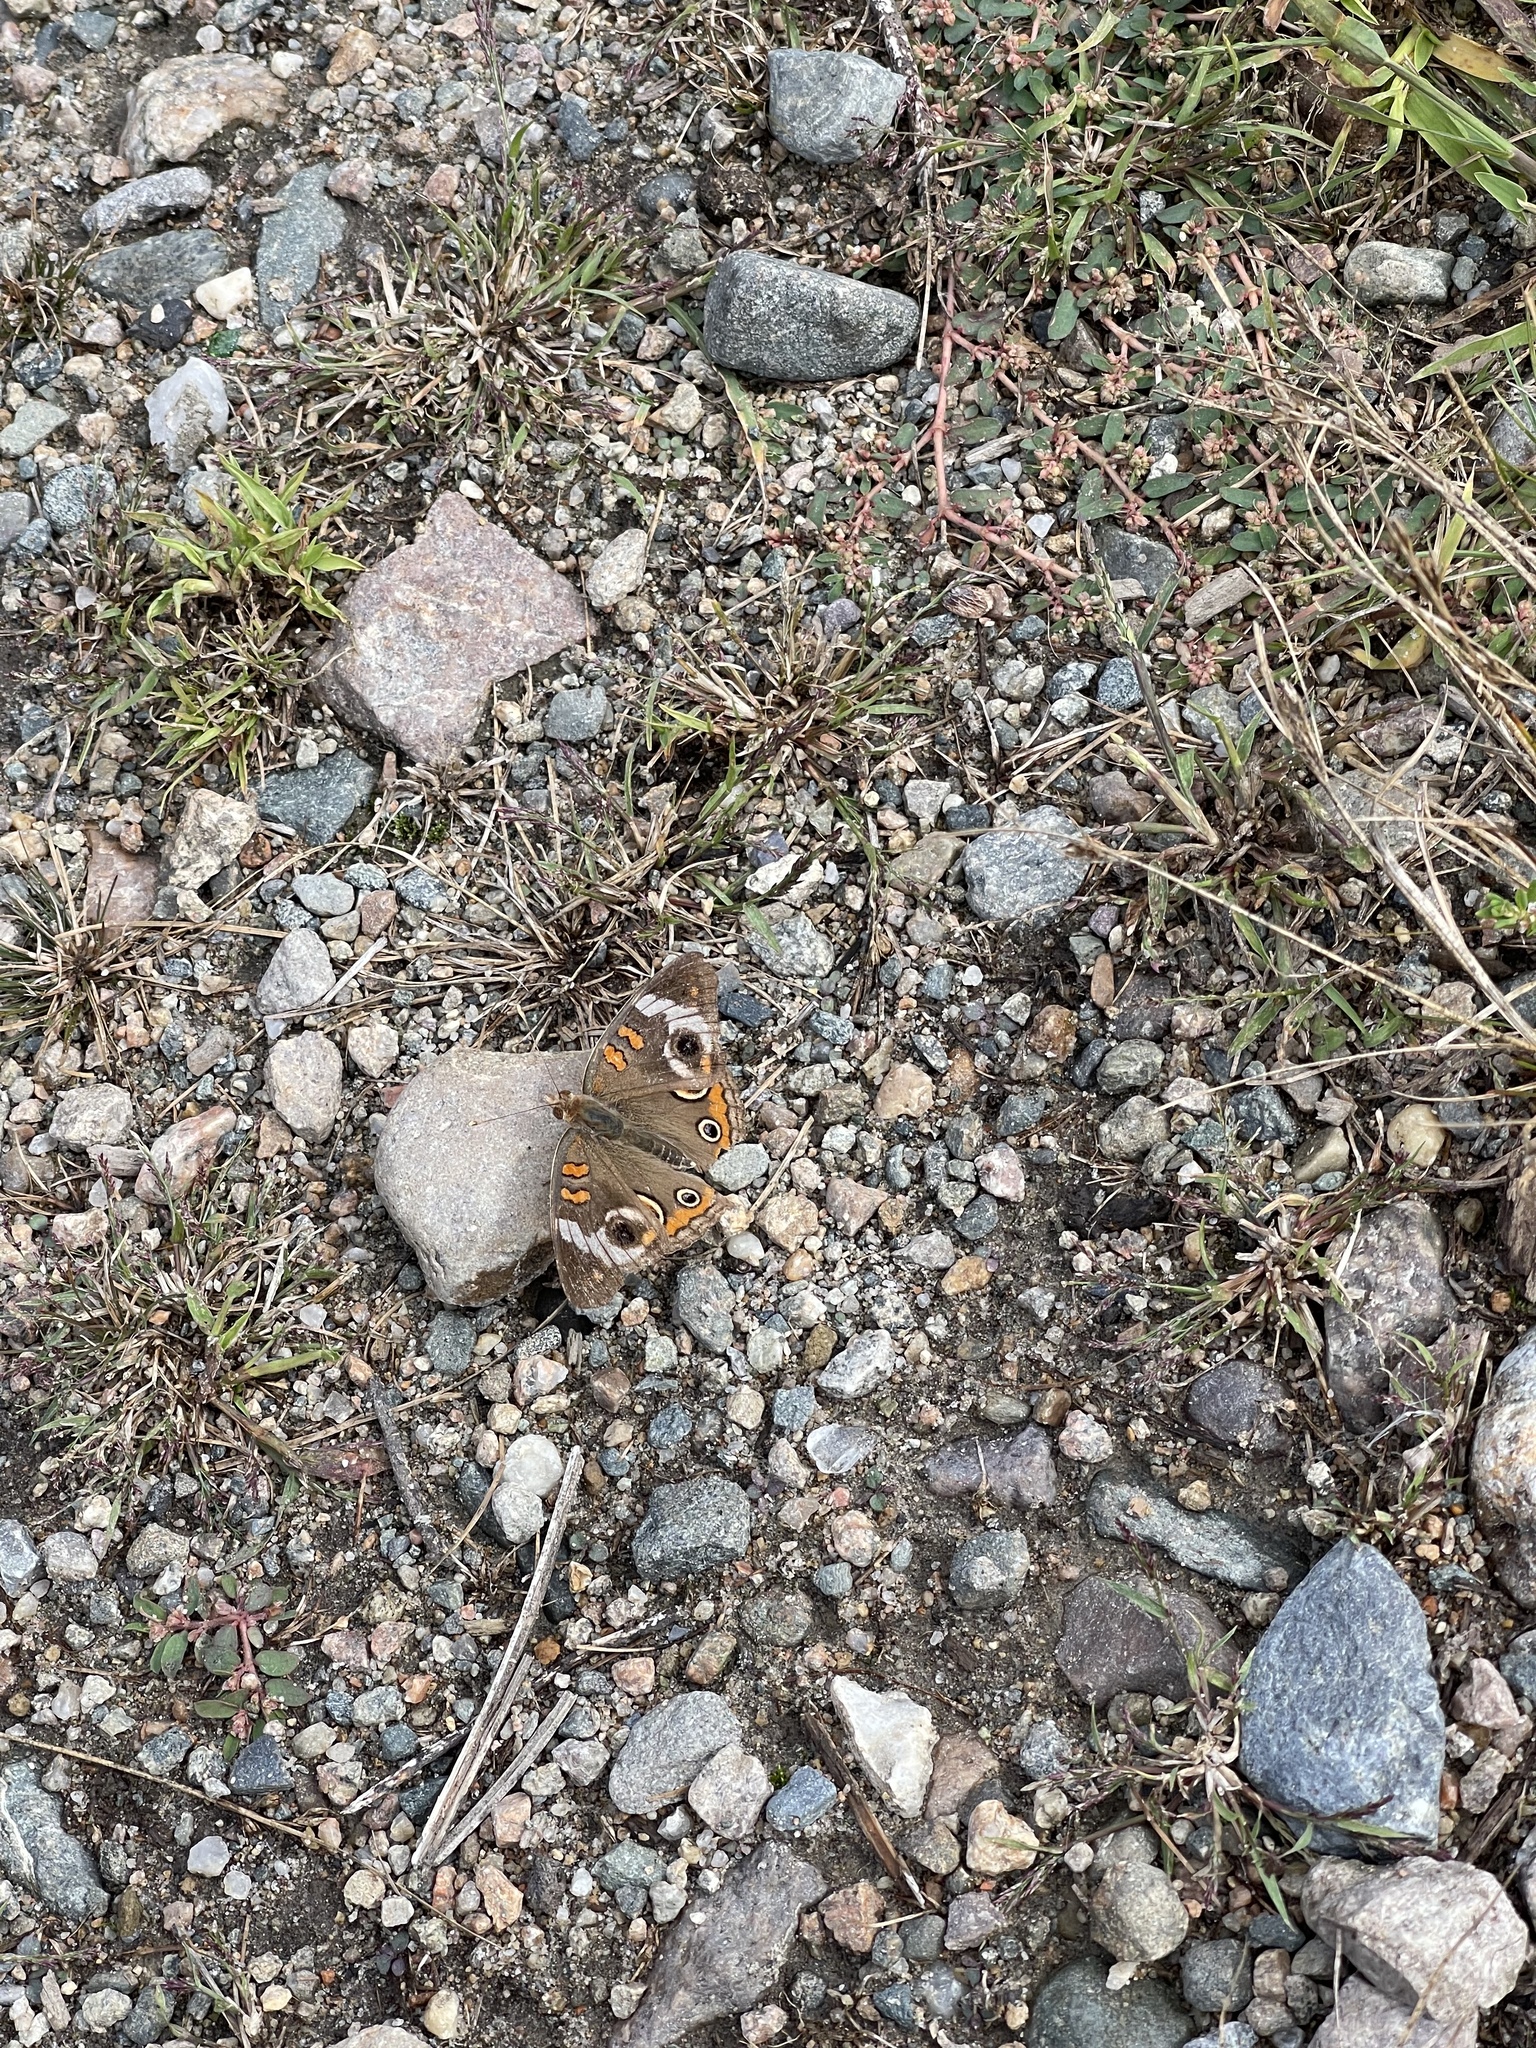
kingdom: Animalia
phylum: Arthropoda
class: Insecta
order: Lepidoptera
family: Nymphalidae
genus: Junonia
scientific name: Junonia coenia
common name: Common buckeye
